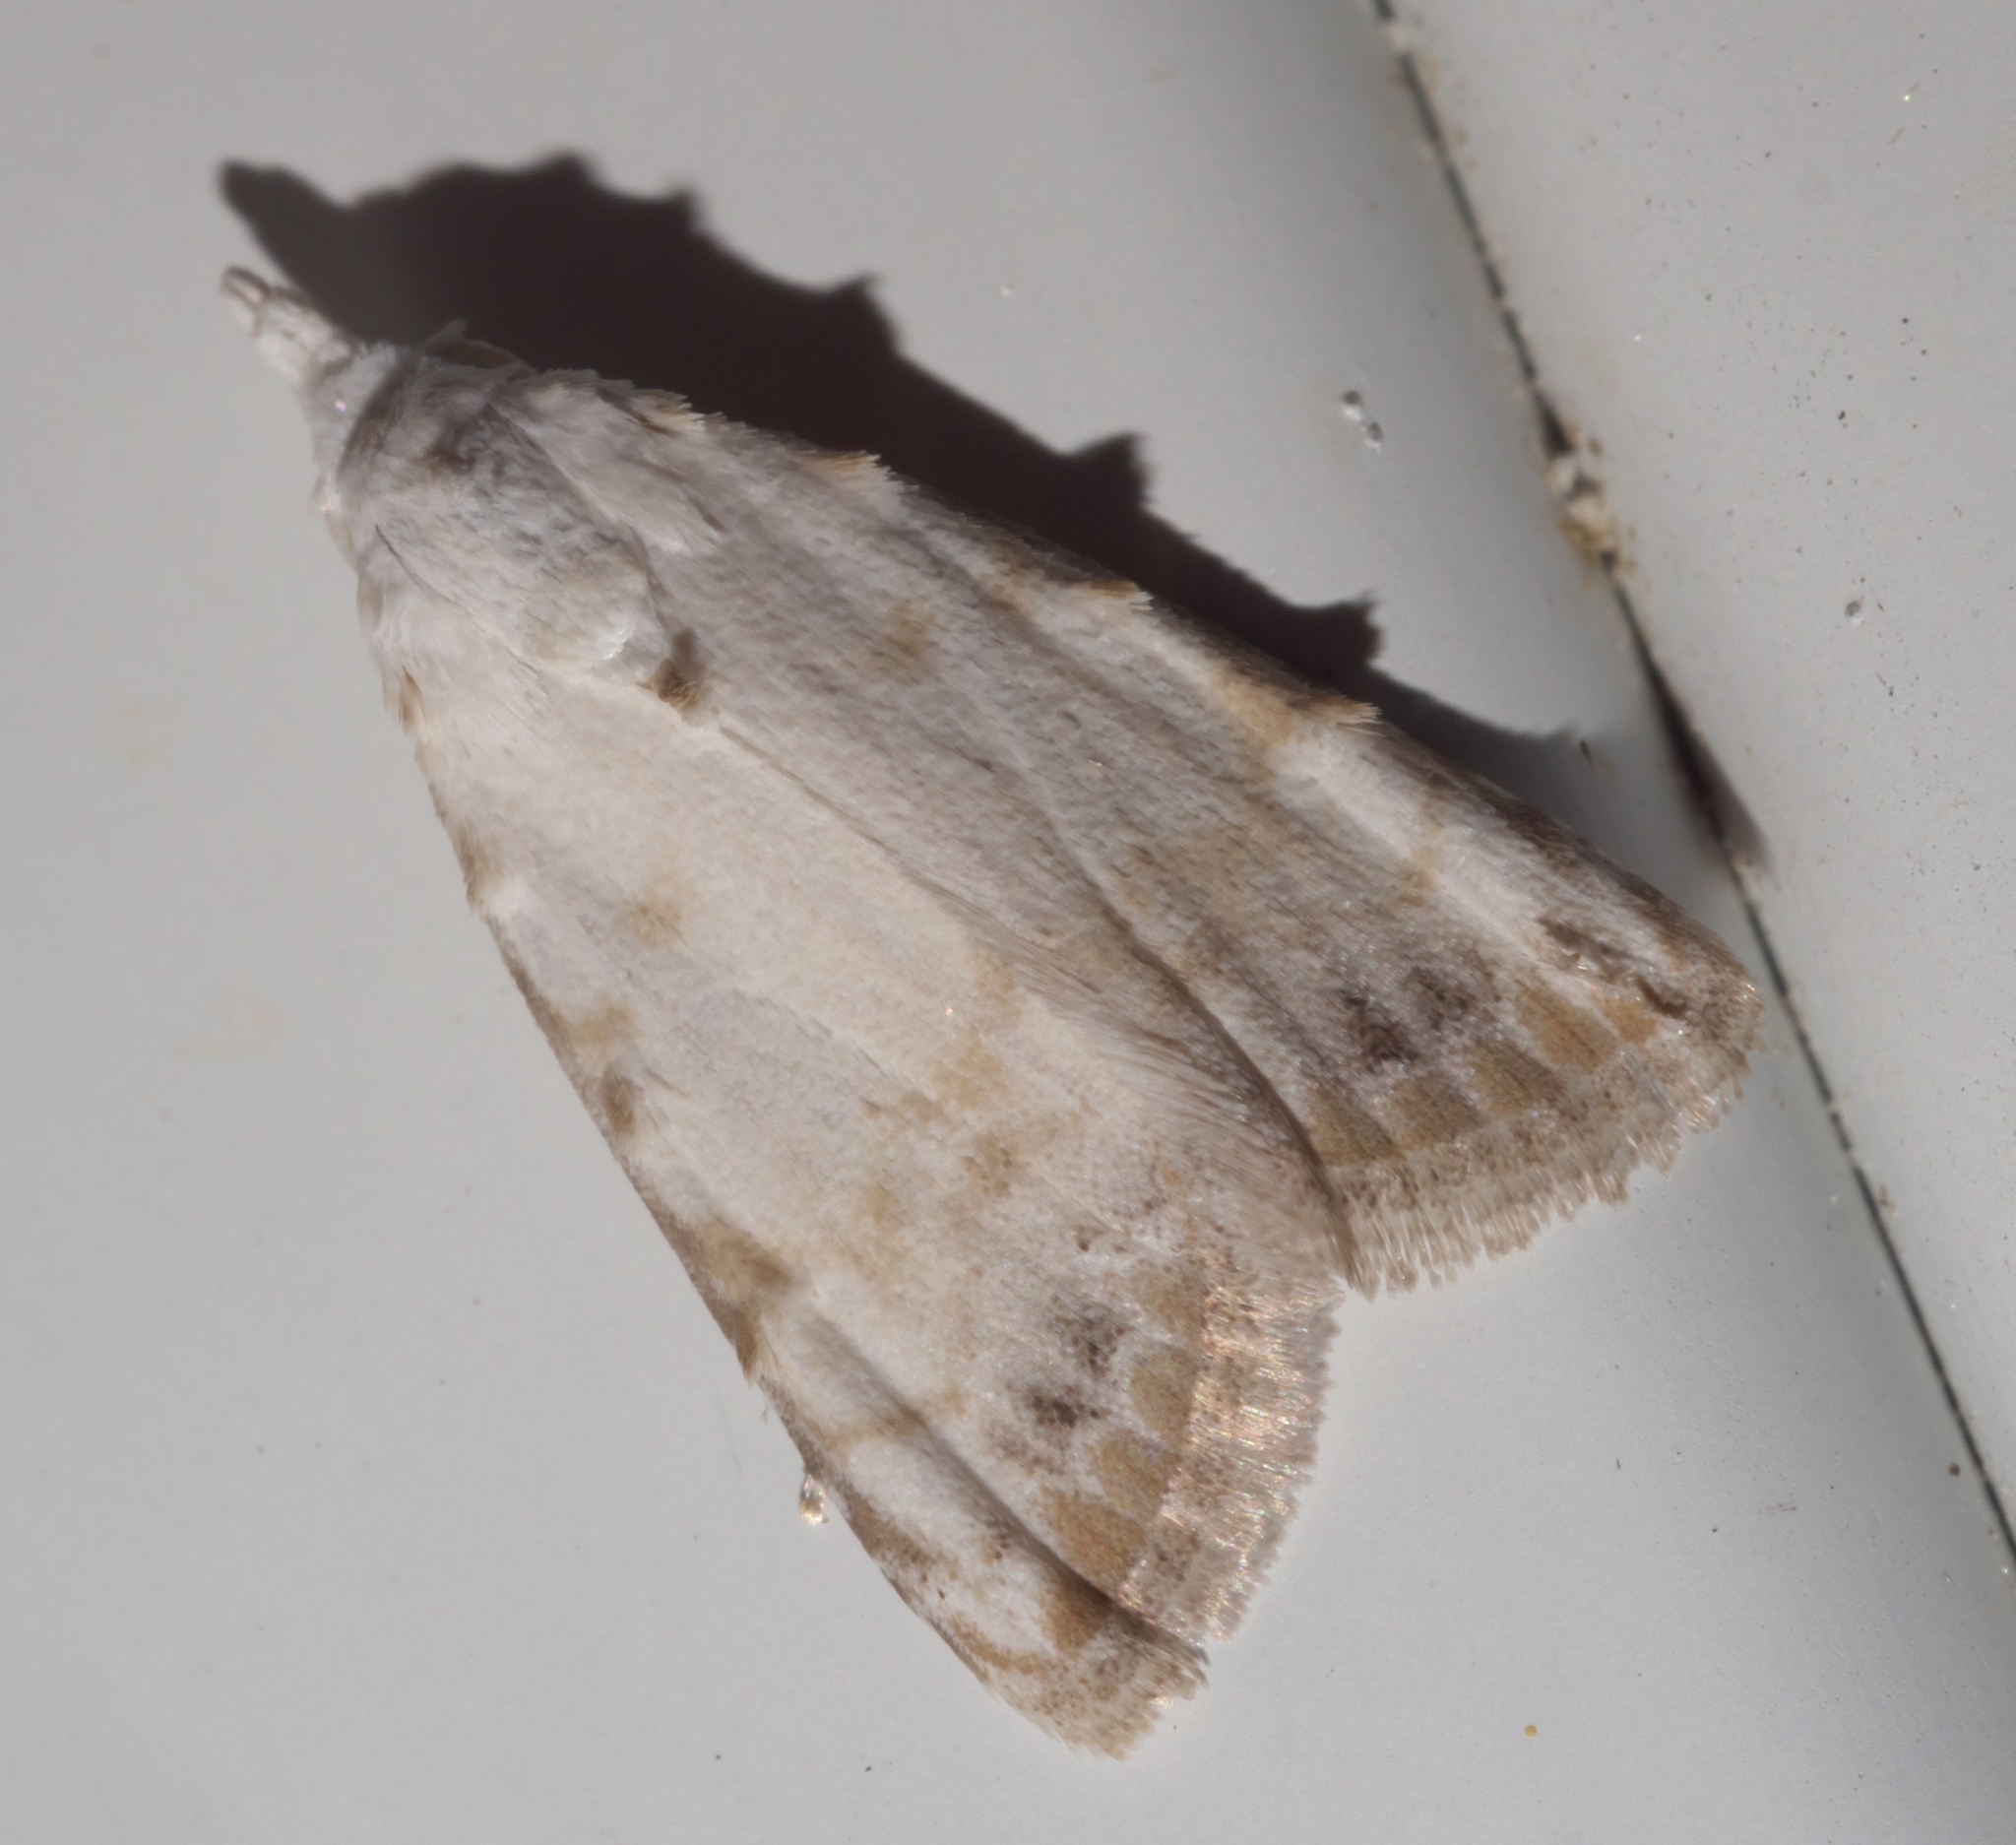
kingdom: Animalia
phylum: Arthropoda
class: Insecta
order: Lepidoptera
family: Nolidae
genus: Nola
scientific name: Nola cereella
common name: Sorghum webworm moth
